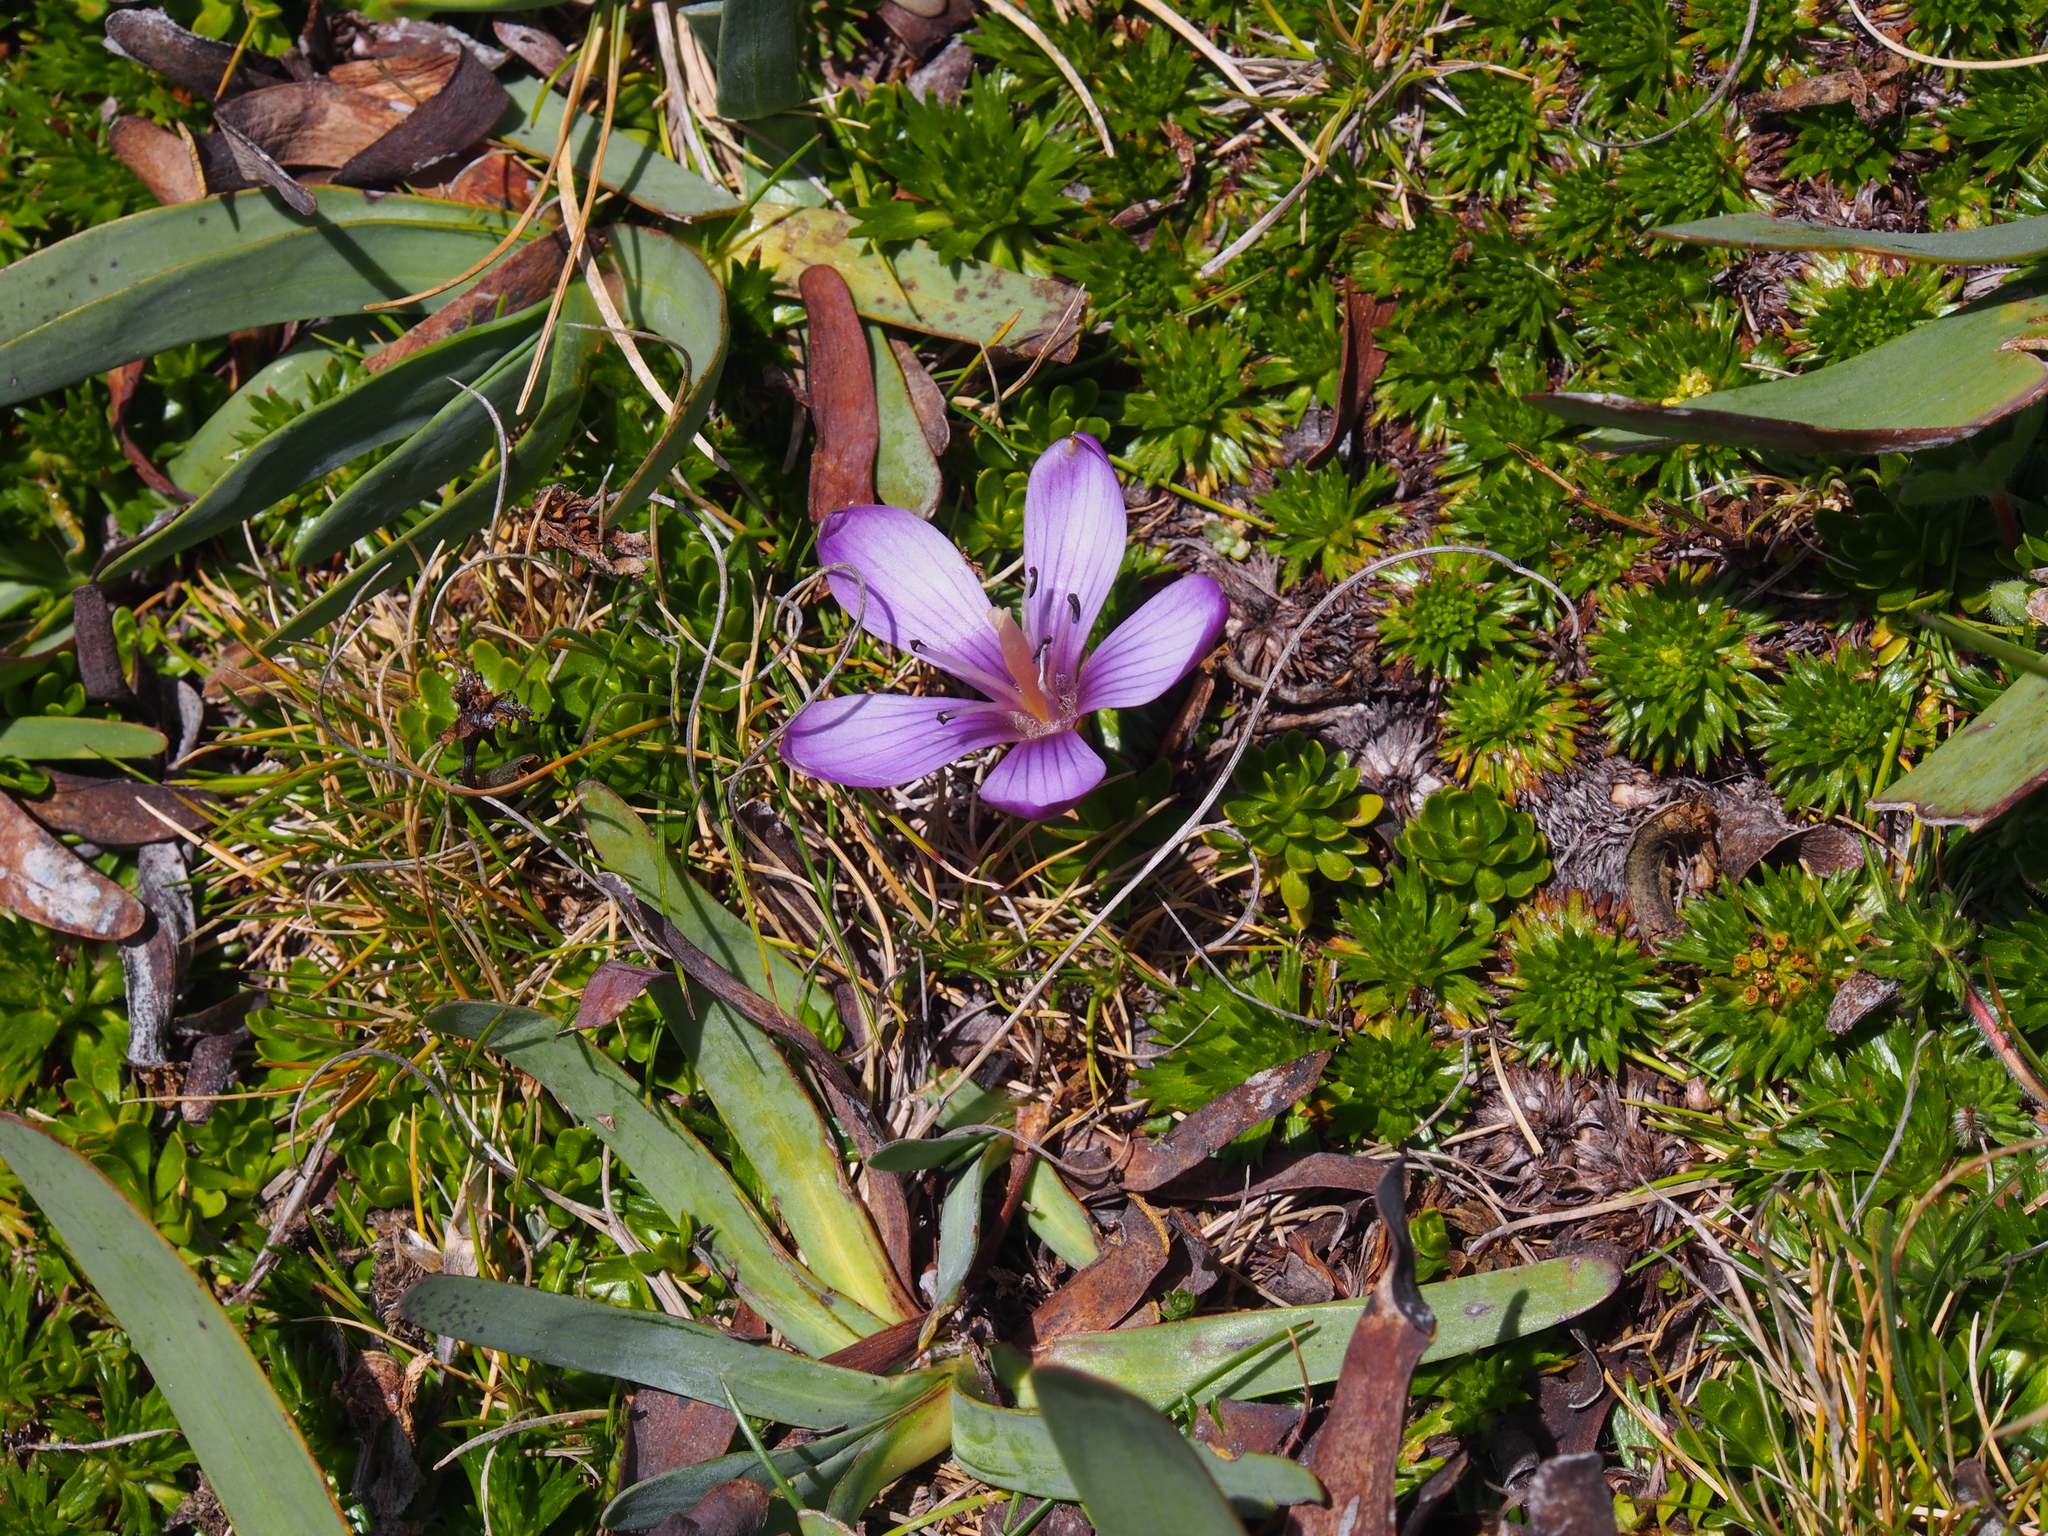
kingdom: Plantae
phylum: Tracheophyta
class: Magnoliopsida
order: Gentianales
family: Gentianaceae
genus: Gentianella
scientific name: Gentianella cerastioides
